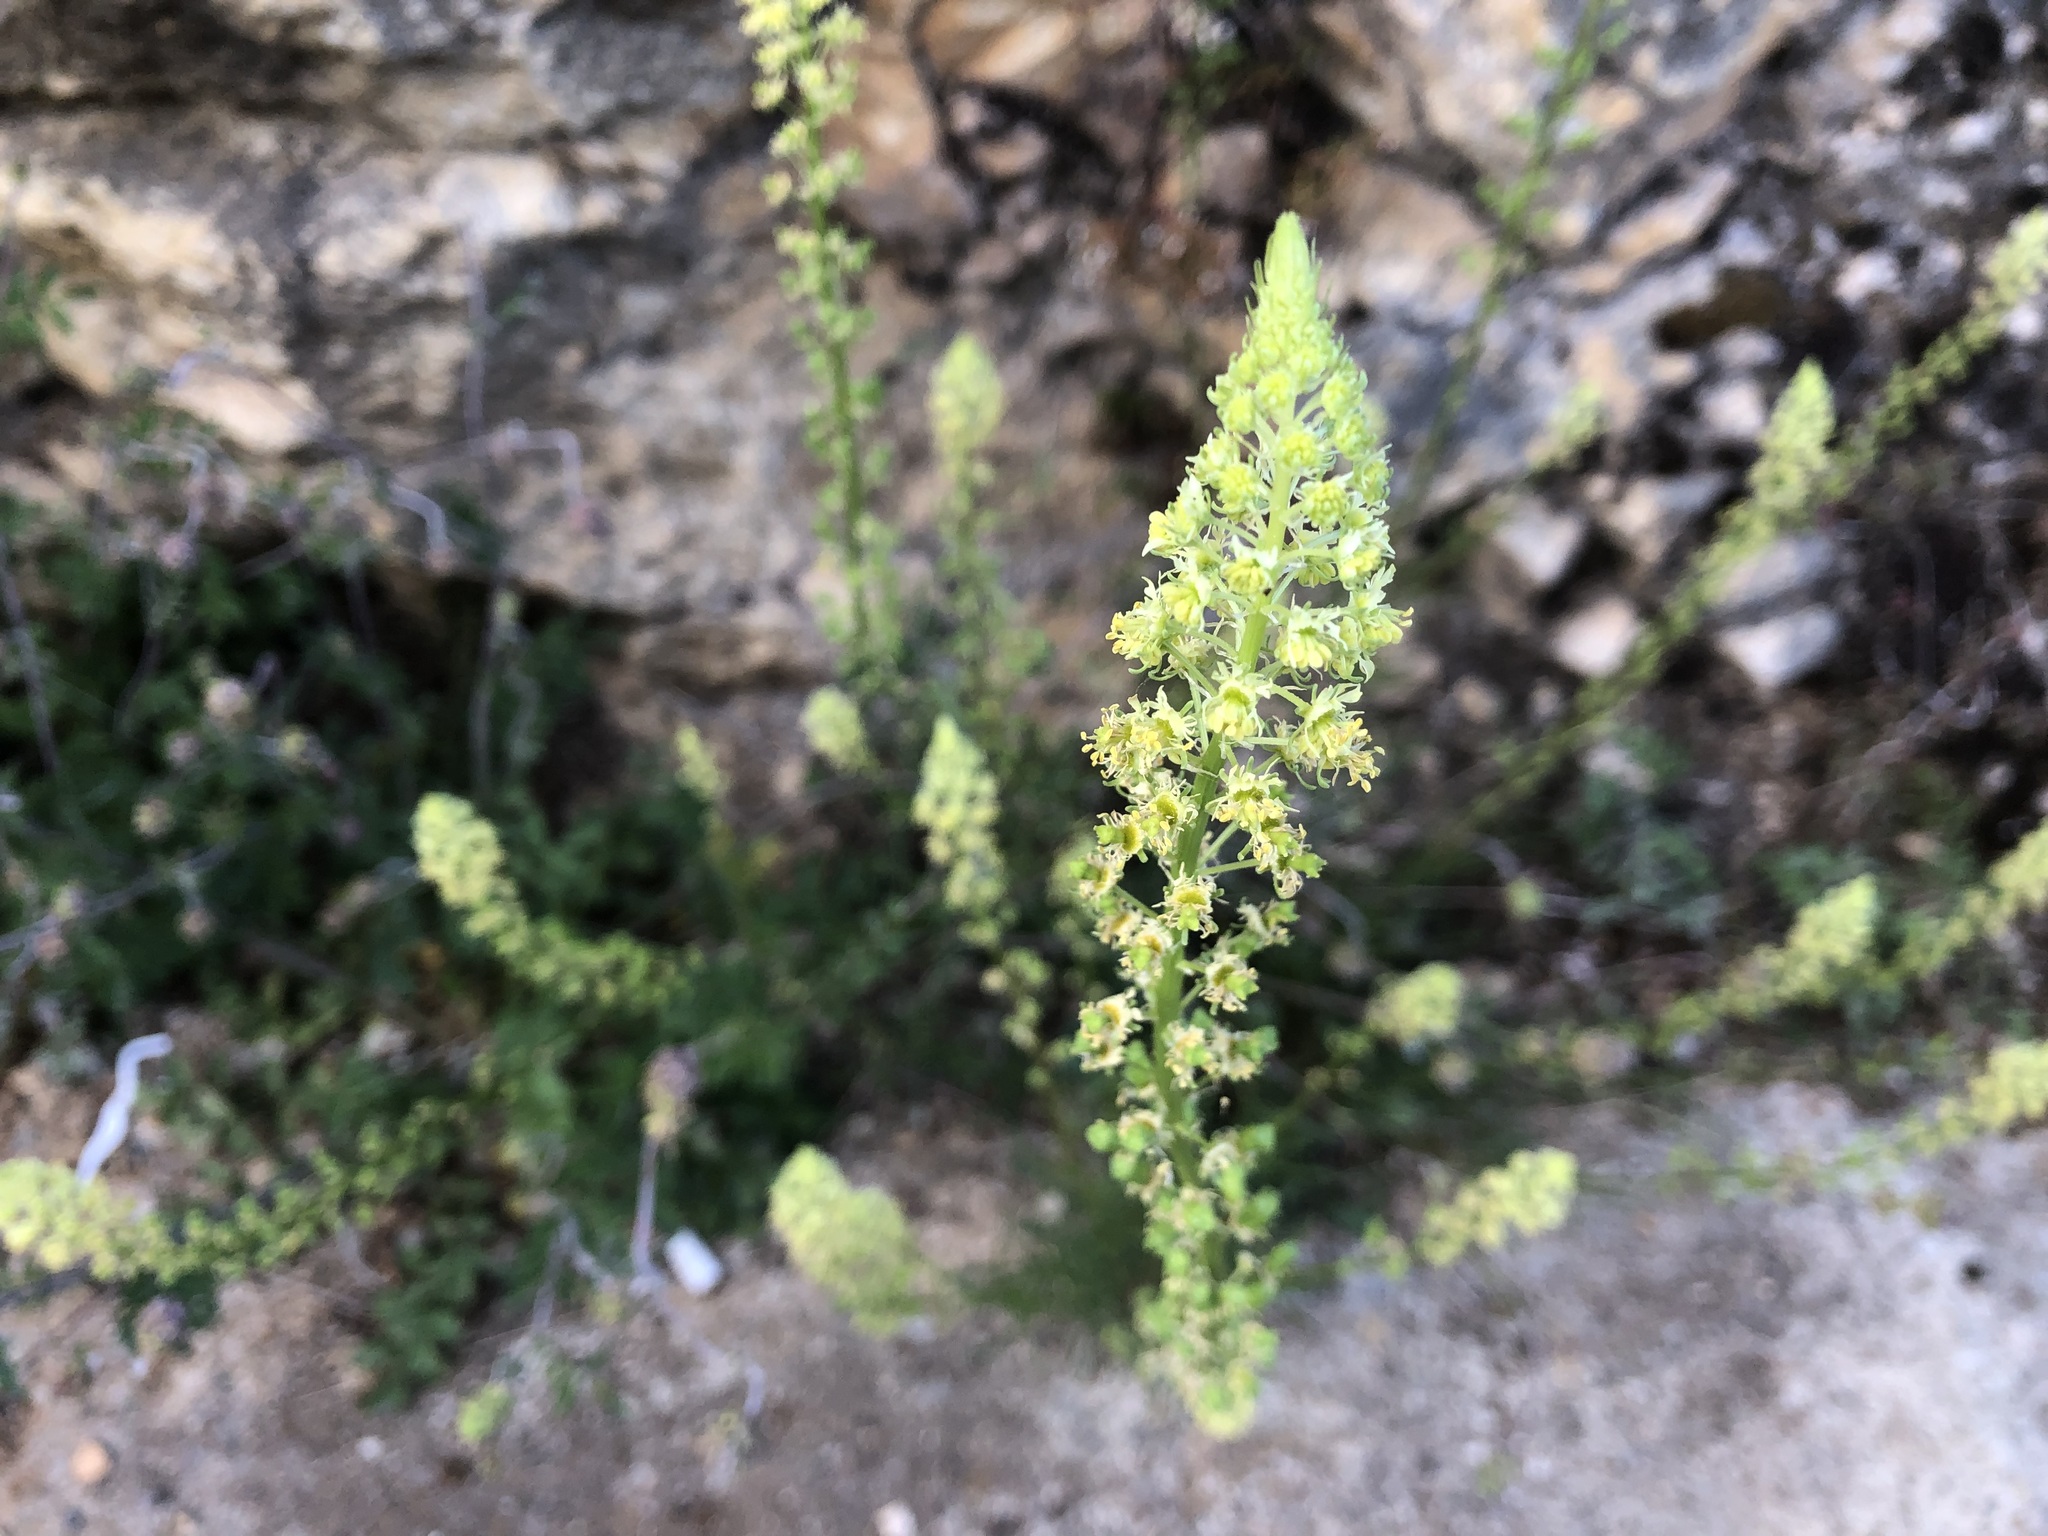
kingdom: Plantae
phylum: Tracheophyta
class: Magnoliopsida
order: Brassicales
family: Resedaceae
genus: Reseda
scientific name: Reseda lutea
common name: Wild mignonette
